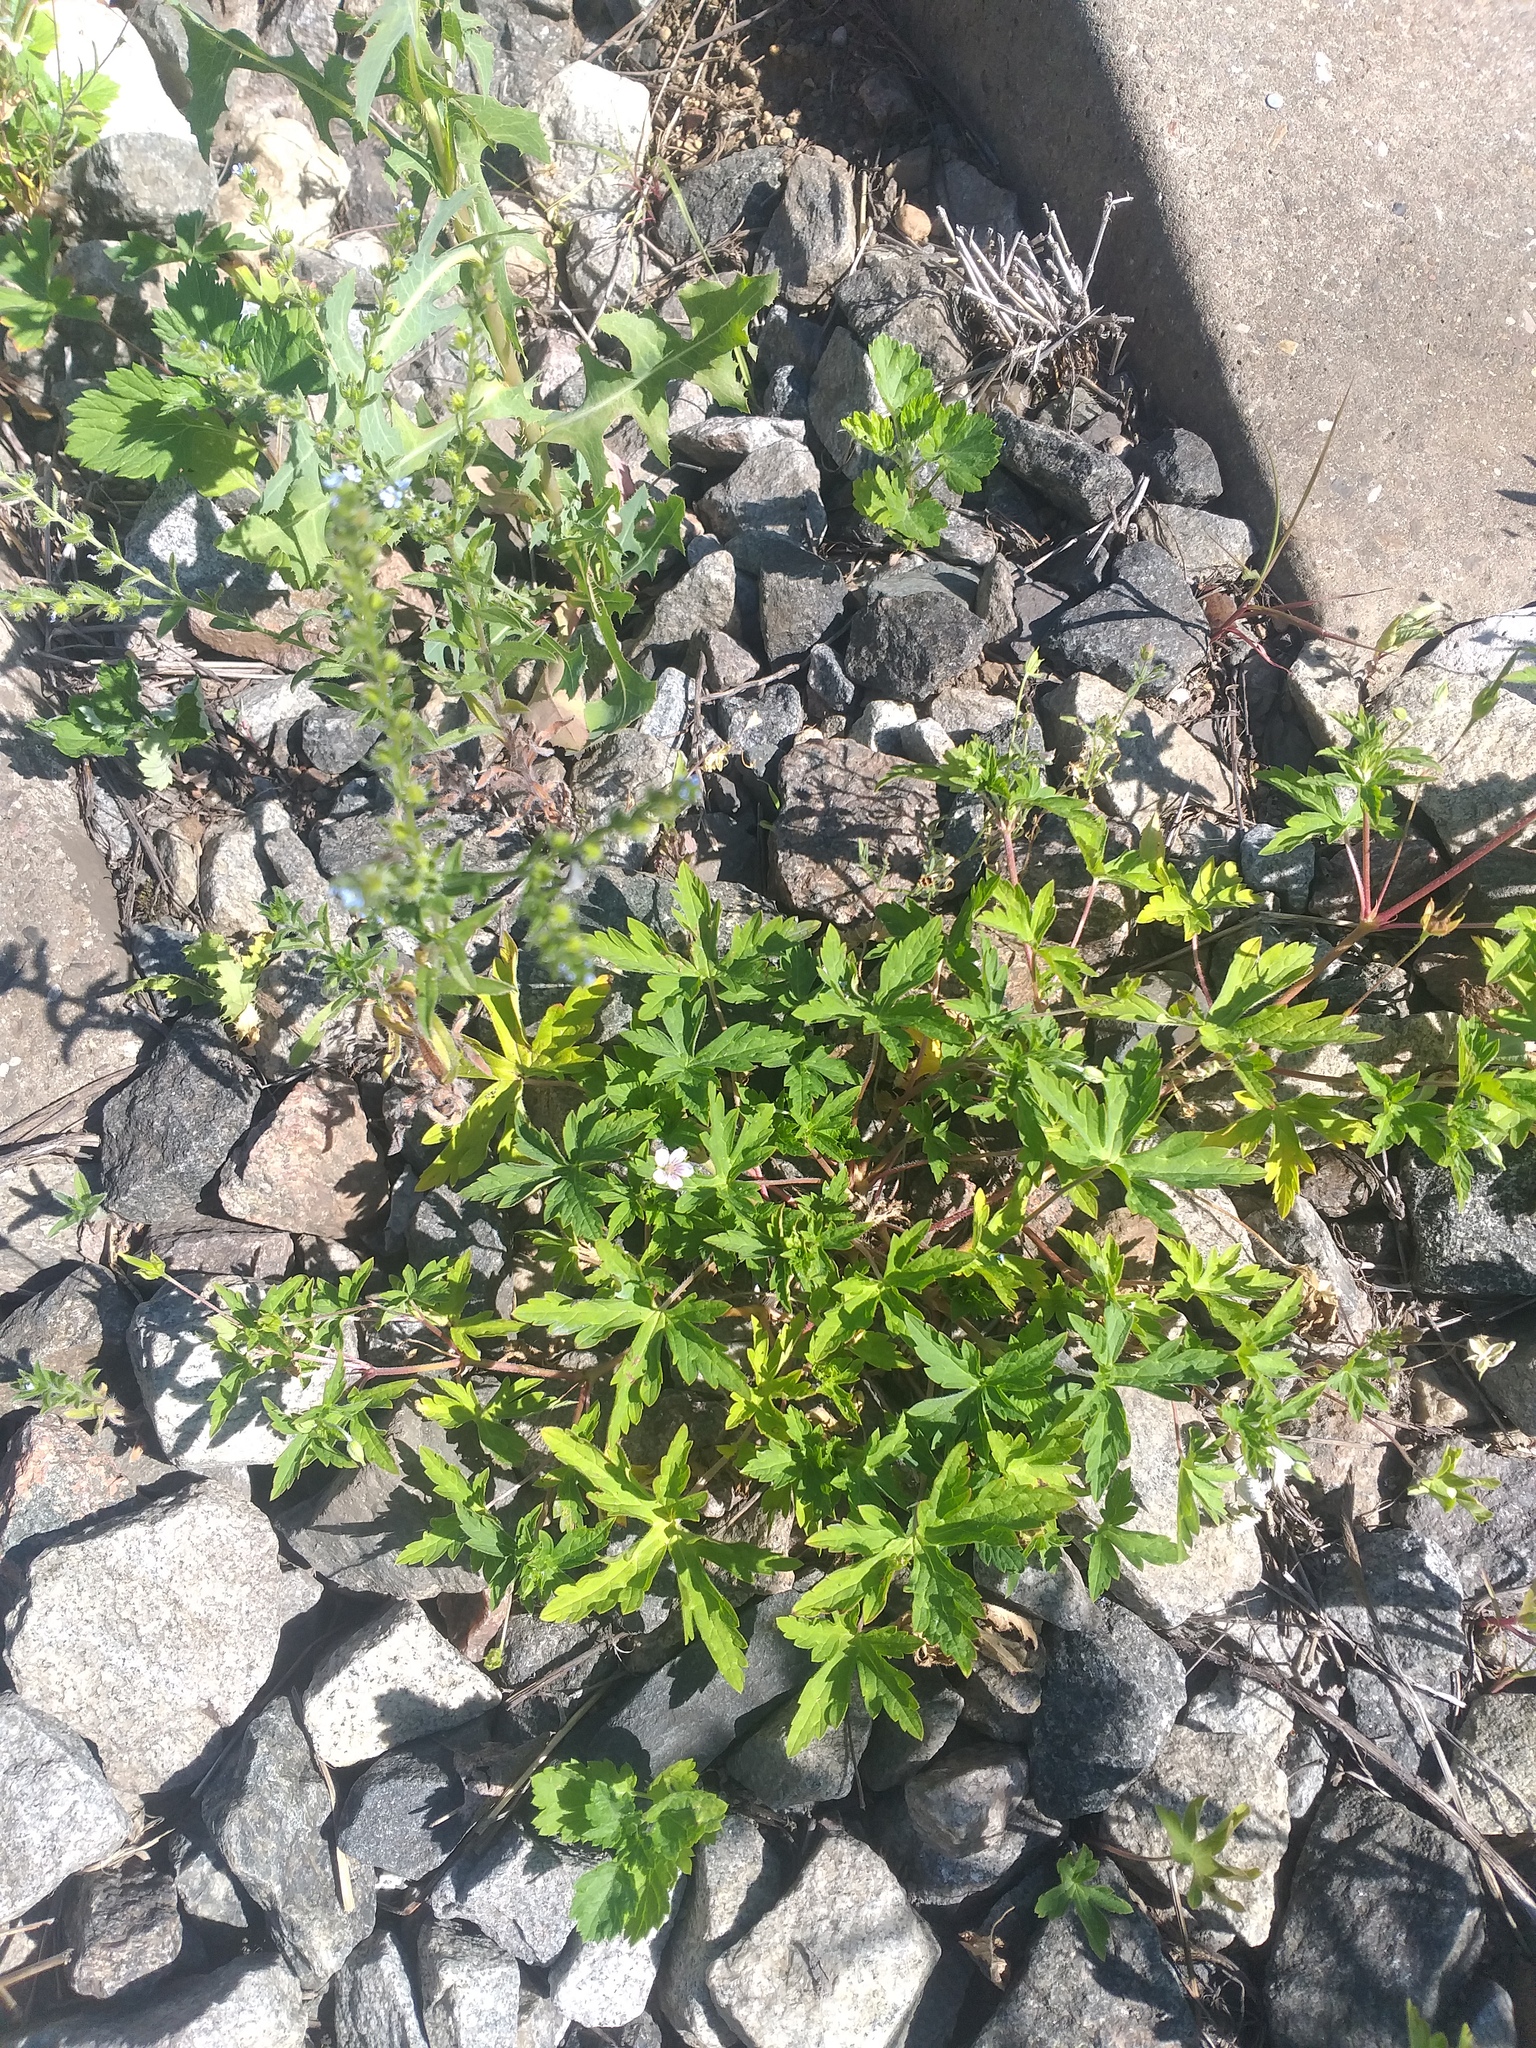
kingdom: Plantae
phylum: Tracheophyta
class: Magnoliopsida
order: Geraniales
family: Geraniaceae
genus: Geranium
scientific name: Geranium sibiricum
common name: Siberian crane's-bill
